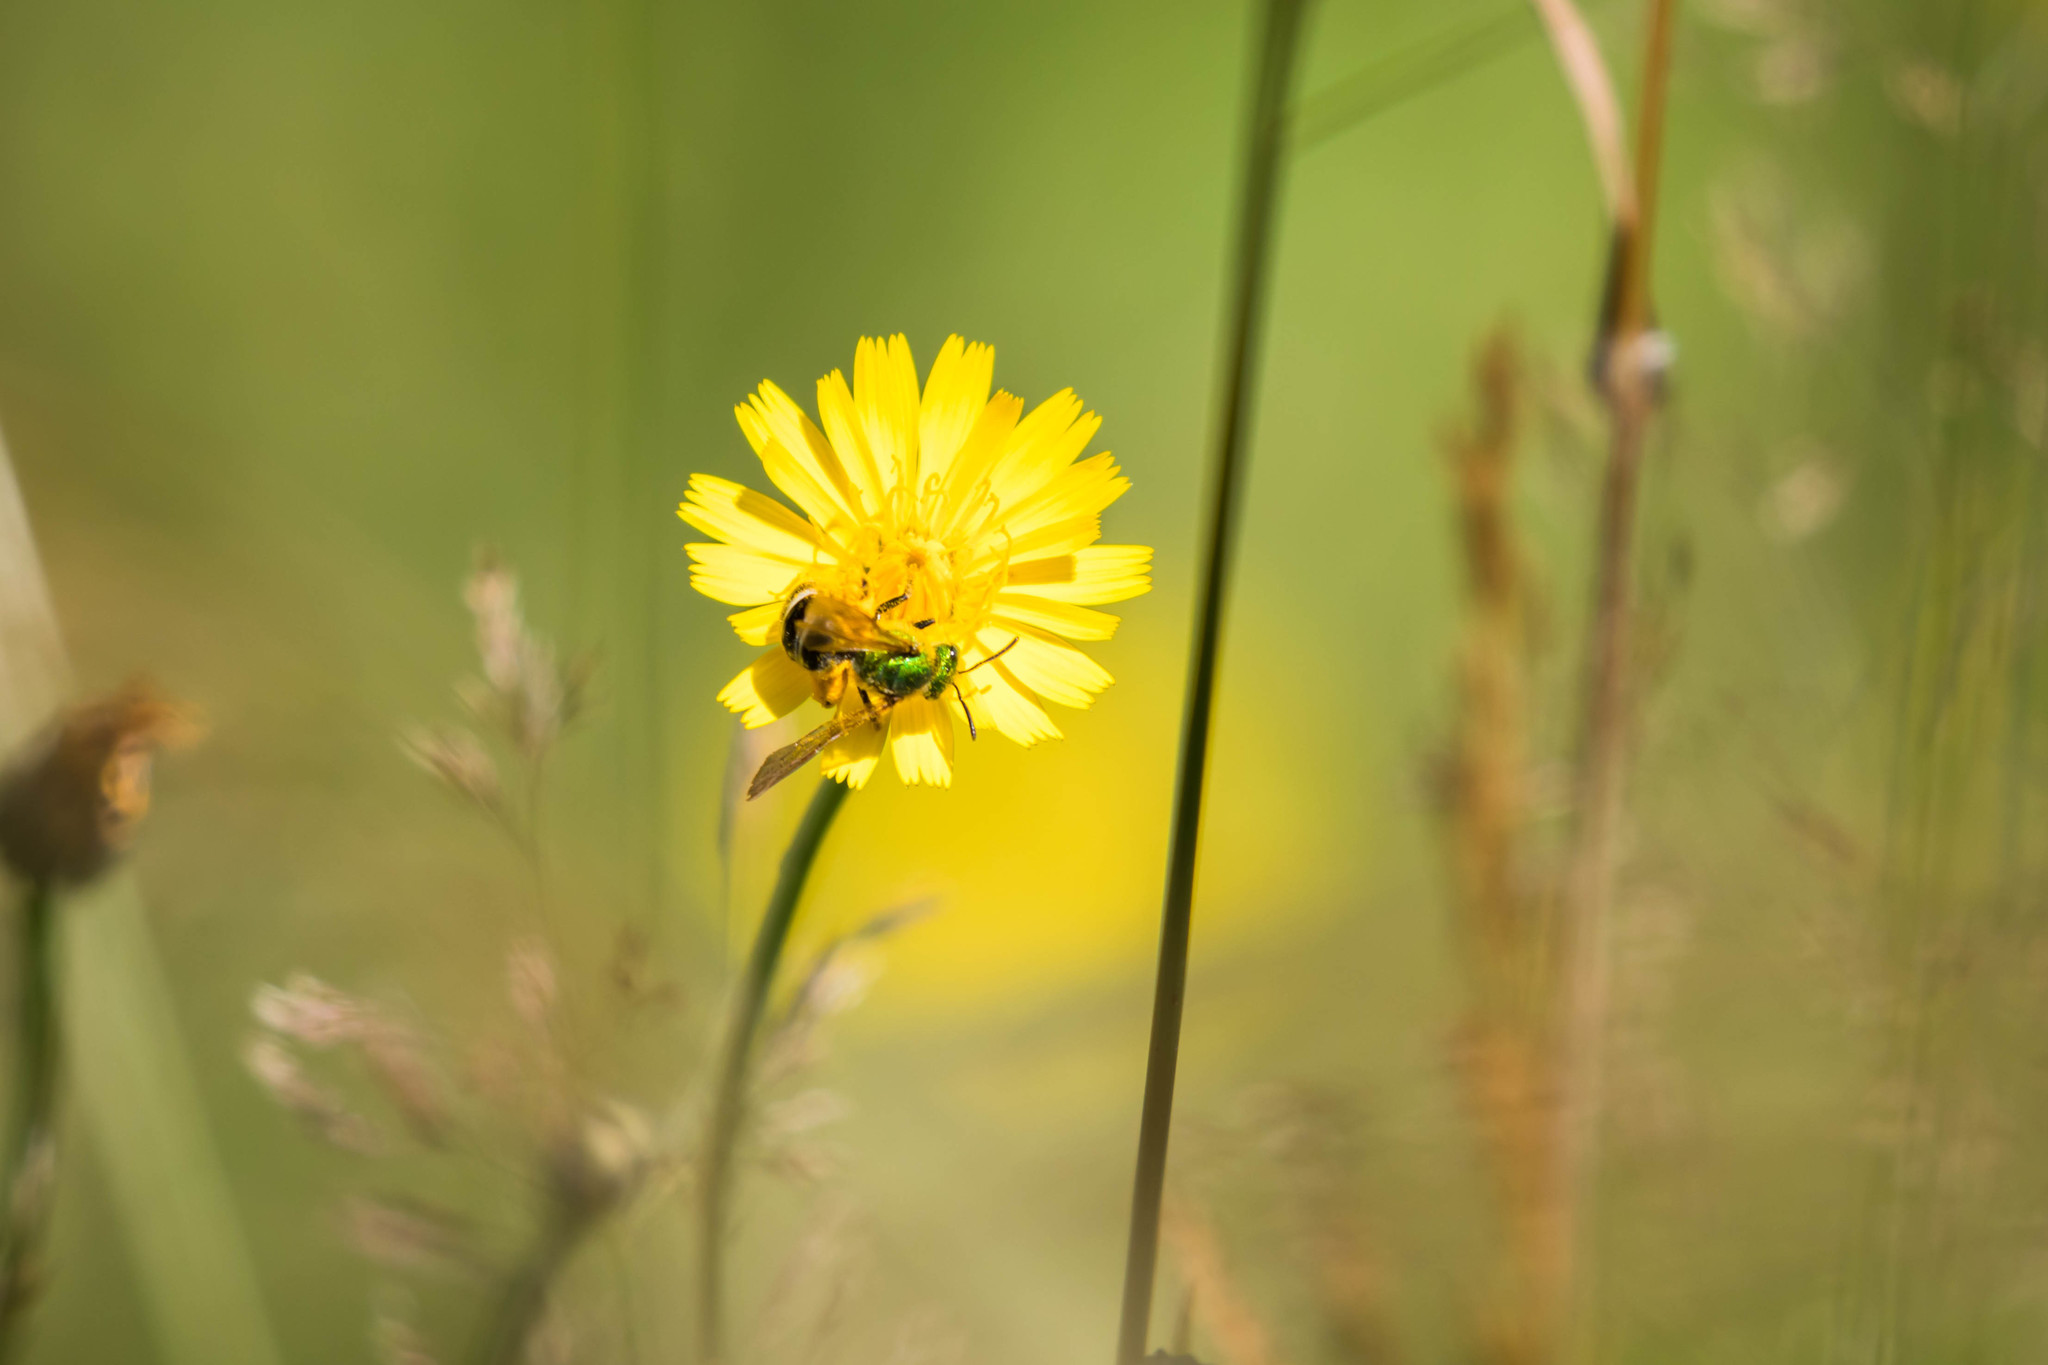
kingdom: Animalia
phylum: Arthropoda
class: Insecta
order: Hymenoptera
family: Halictidae
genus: Agapostemon
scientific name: Agapostemon virescens
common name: Bicolored striped sweat bee
